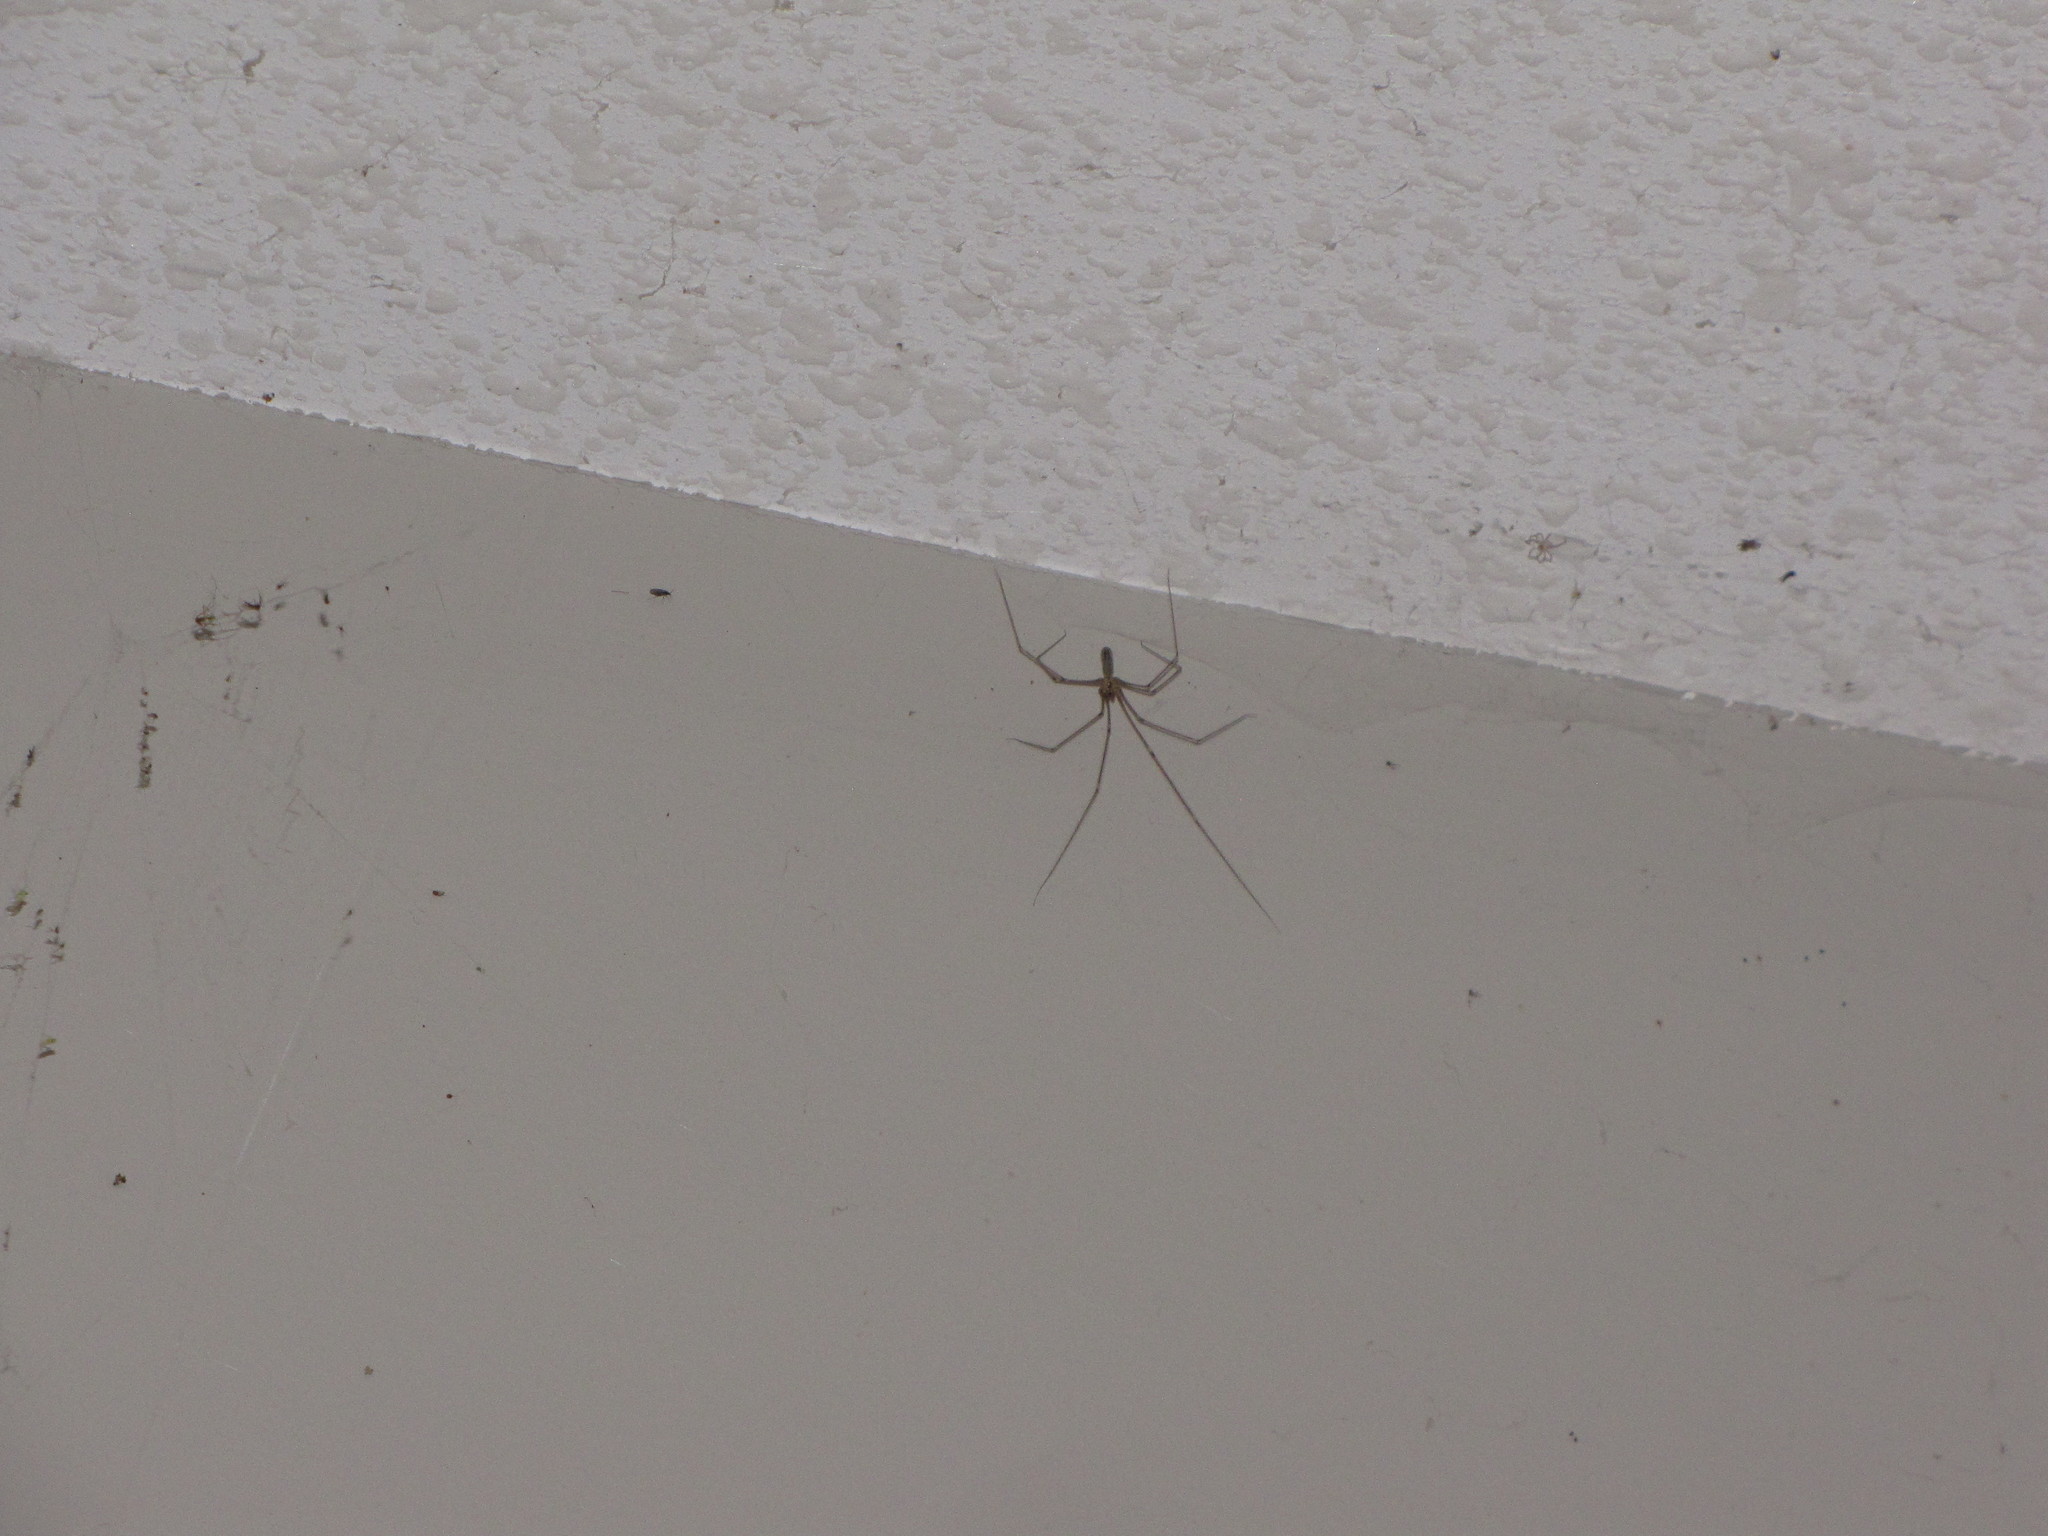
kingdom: Animalia
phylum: Arthropoda
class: Arachnida
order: Araneae
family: Pholcidae
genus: Pholcus
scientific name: Pholcus phalangioides
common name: Longbodied cellar spider
